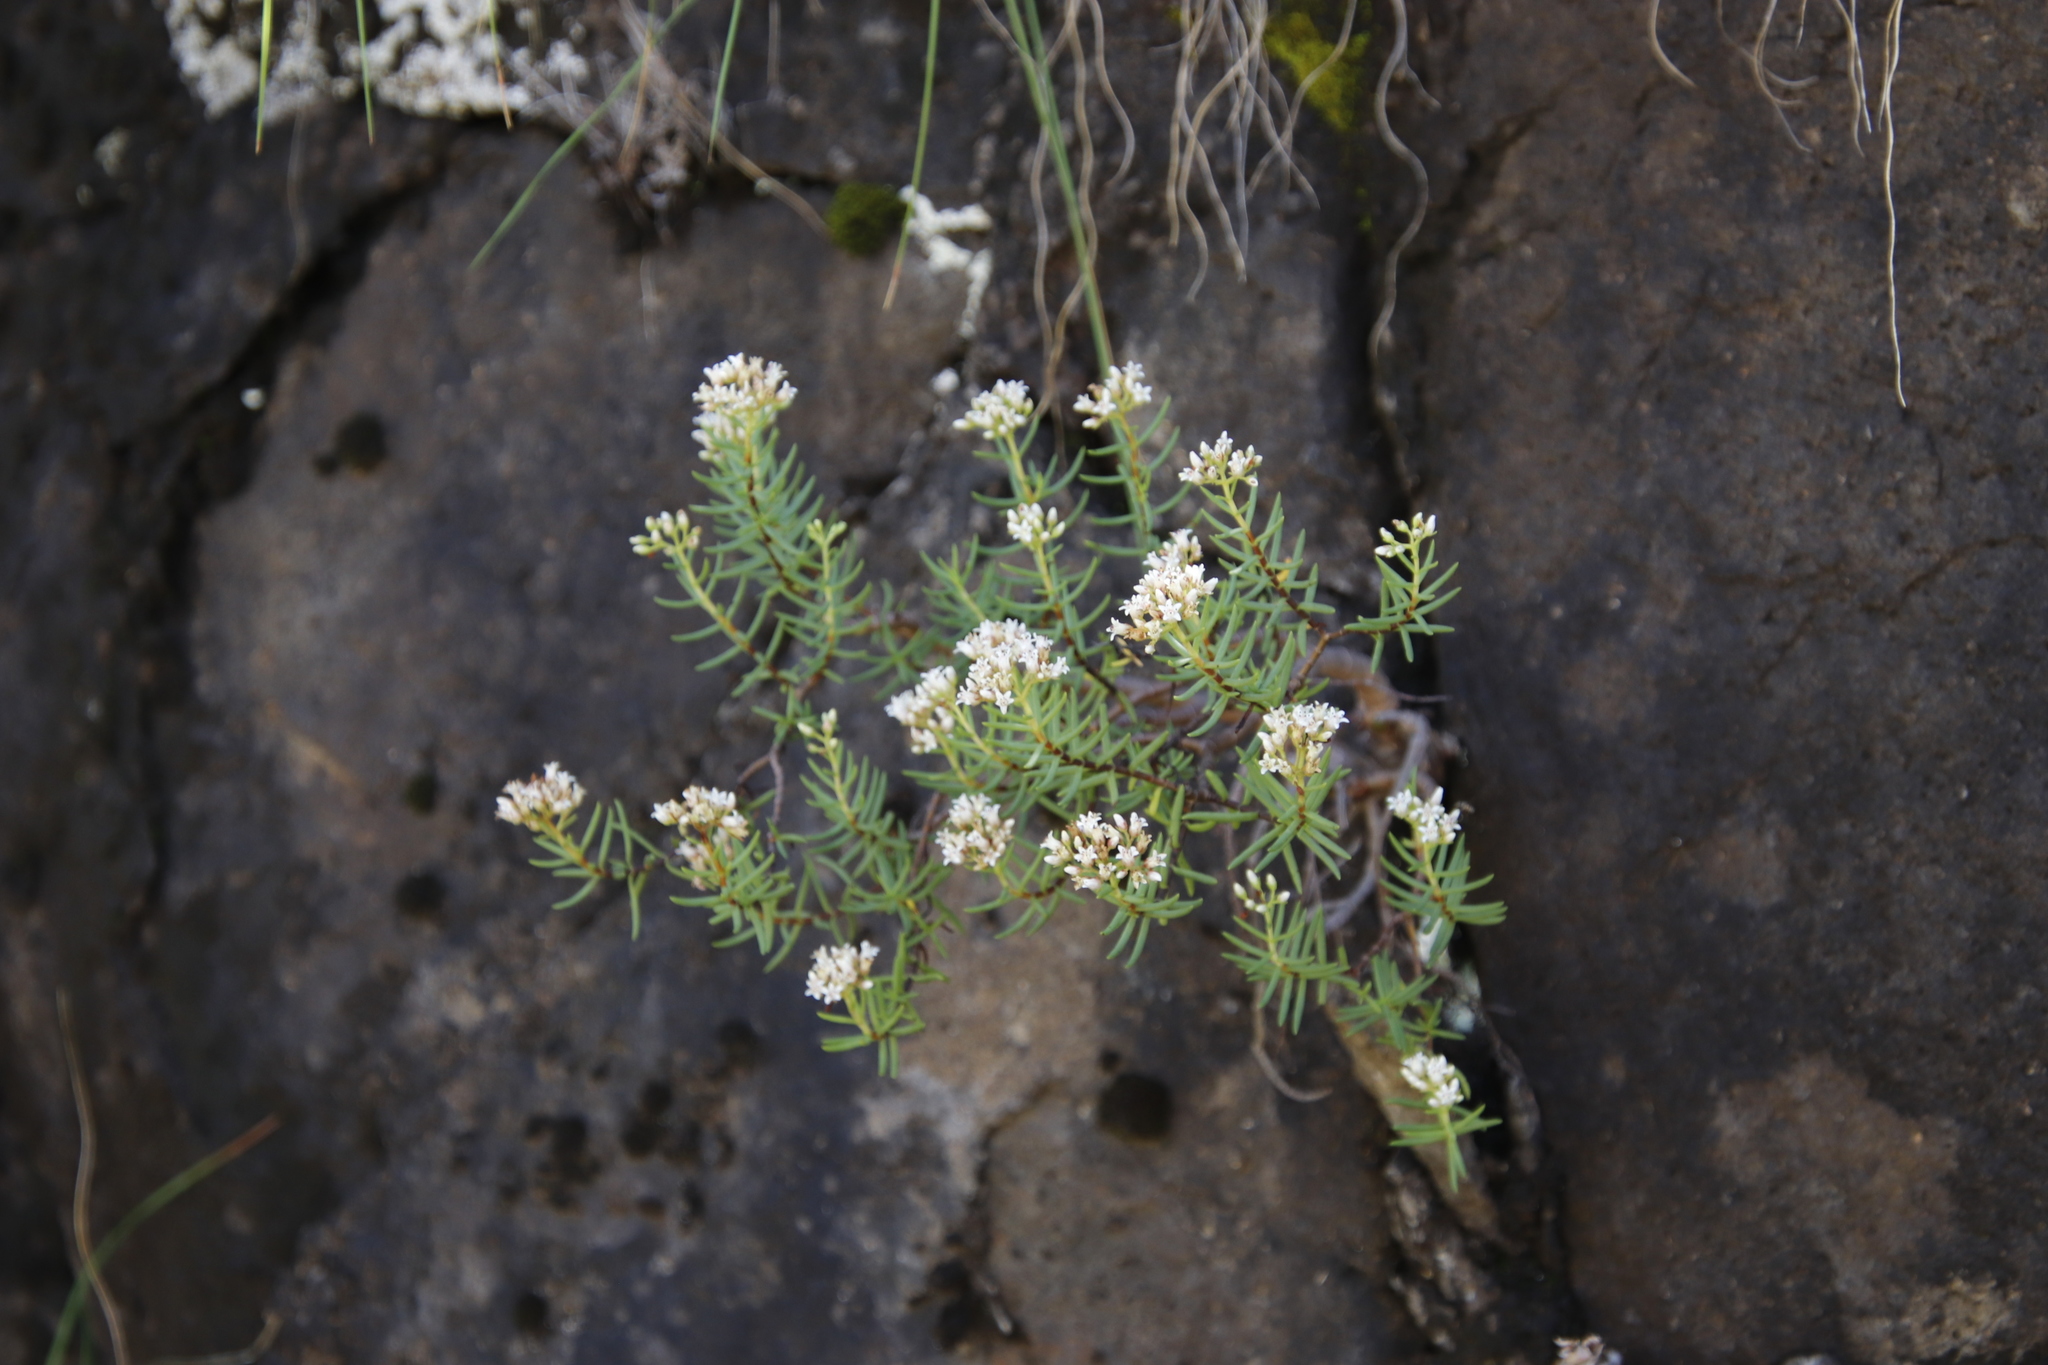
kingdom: Plantae
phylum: Tracheophyta
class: Magnoliopsida
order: Saxifragales
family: Crassulaceae
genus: Crassula
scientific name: Crassula sarcocaulis
